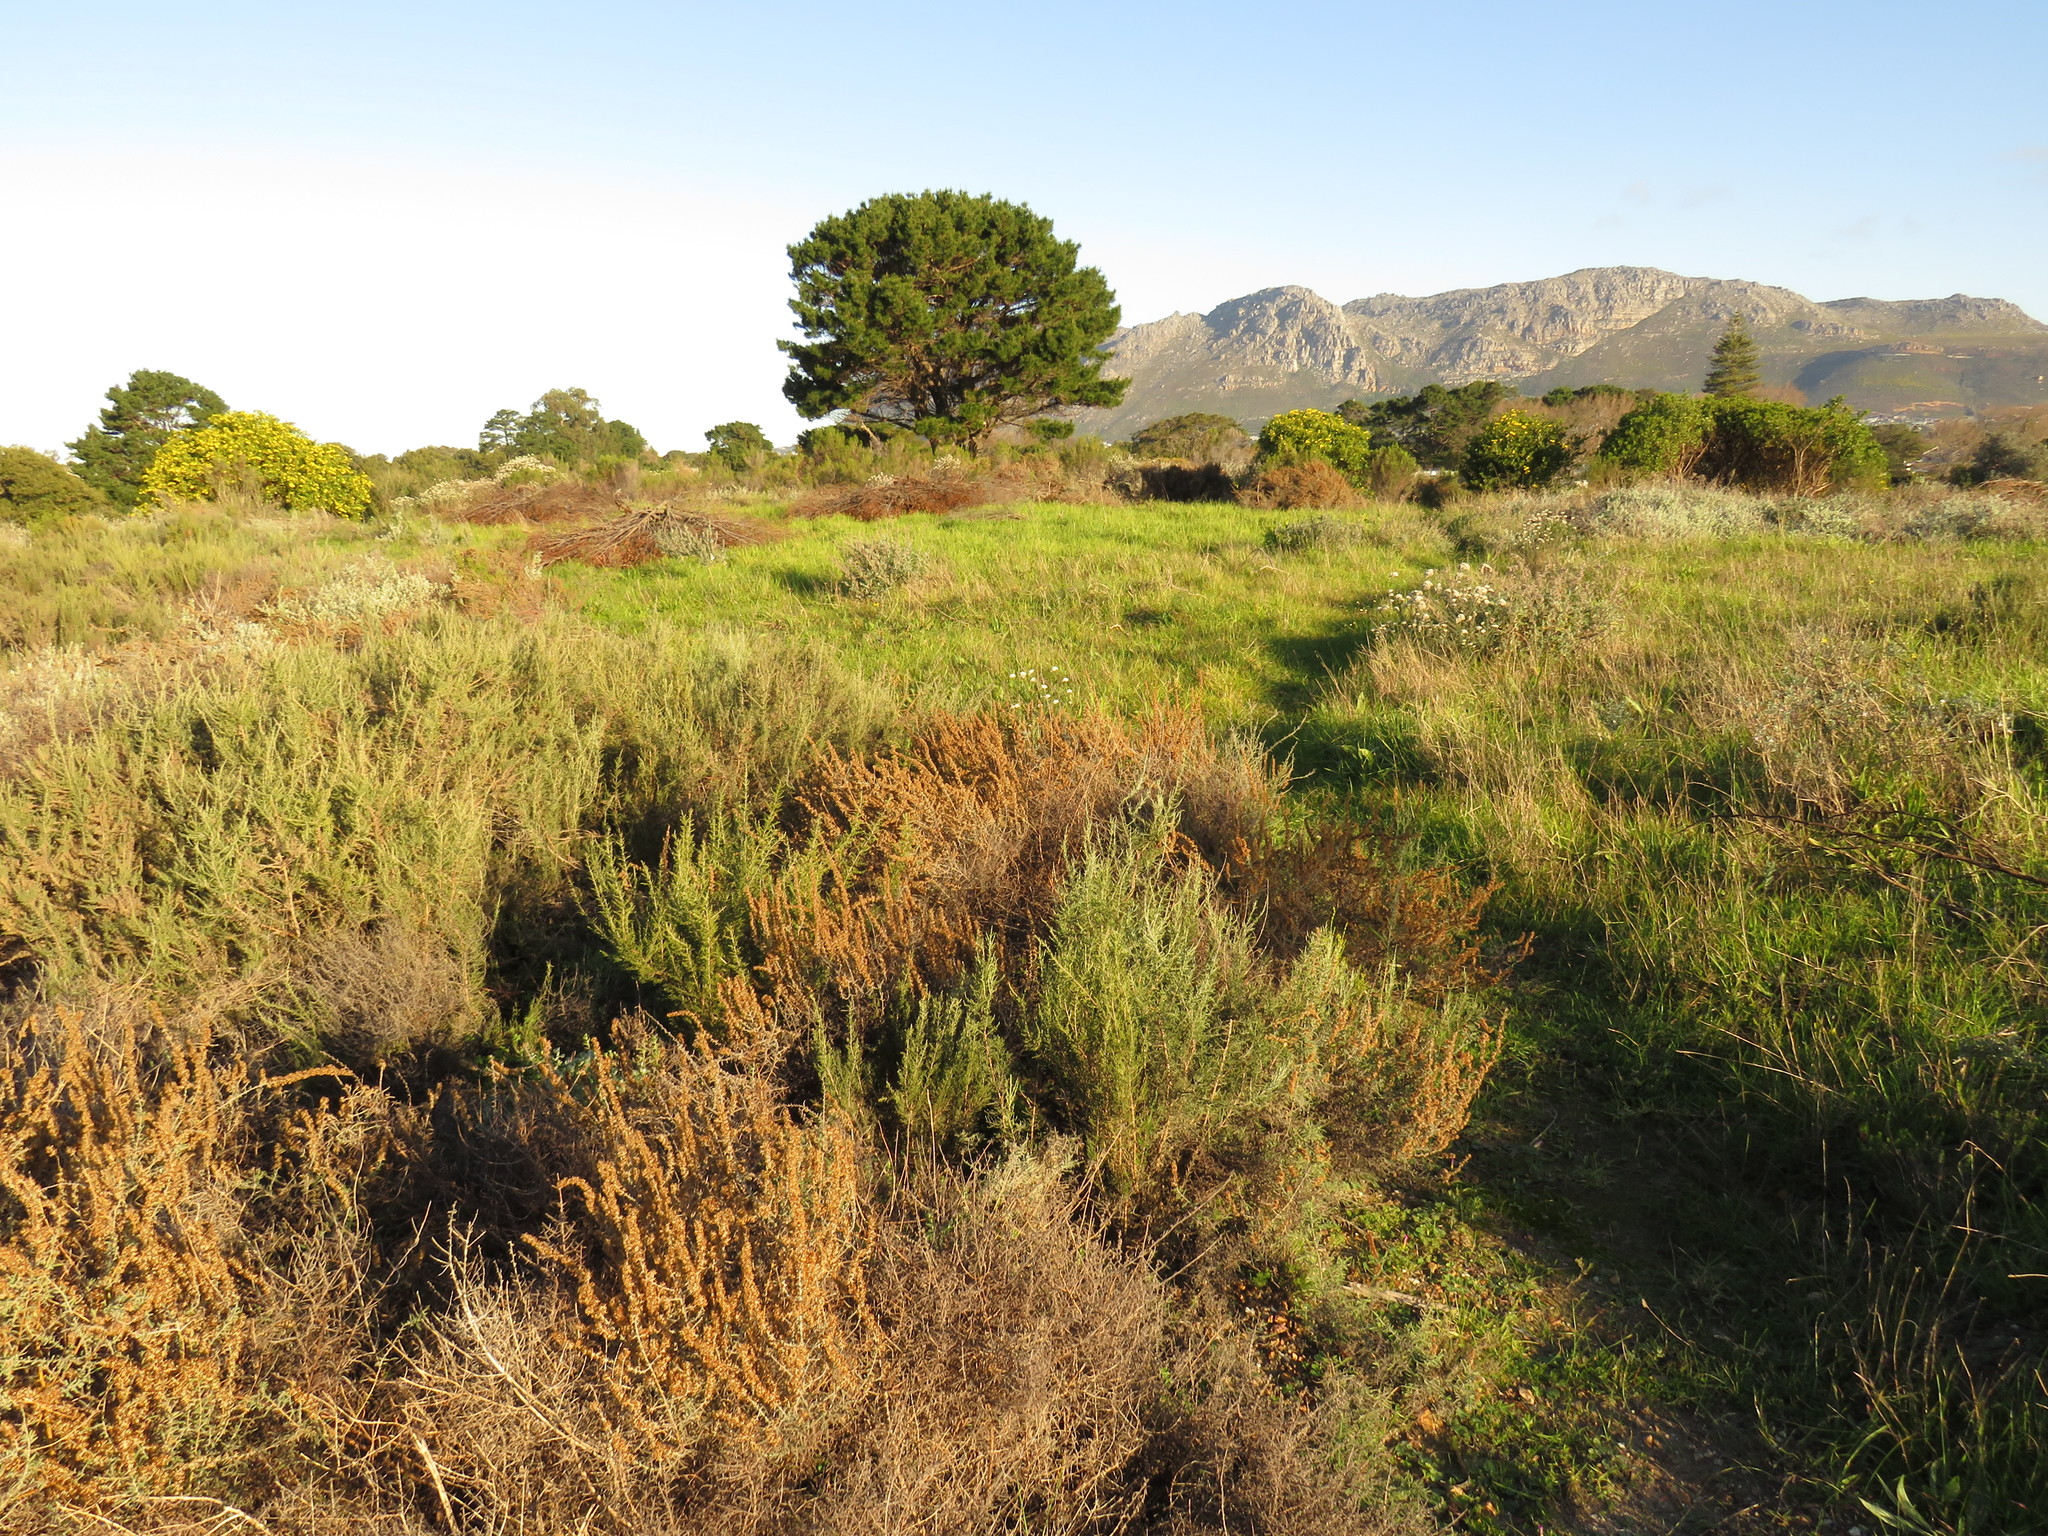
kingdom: Plantae
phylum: Tracheophyta
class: Magnoliopsida
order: Asterales
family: Asteraceae
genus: Seriphium
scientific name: Seriphium plumosum
